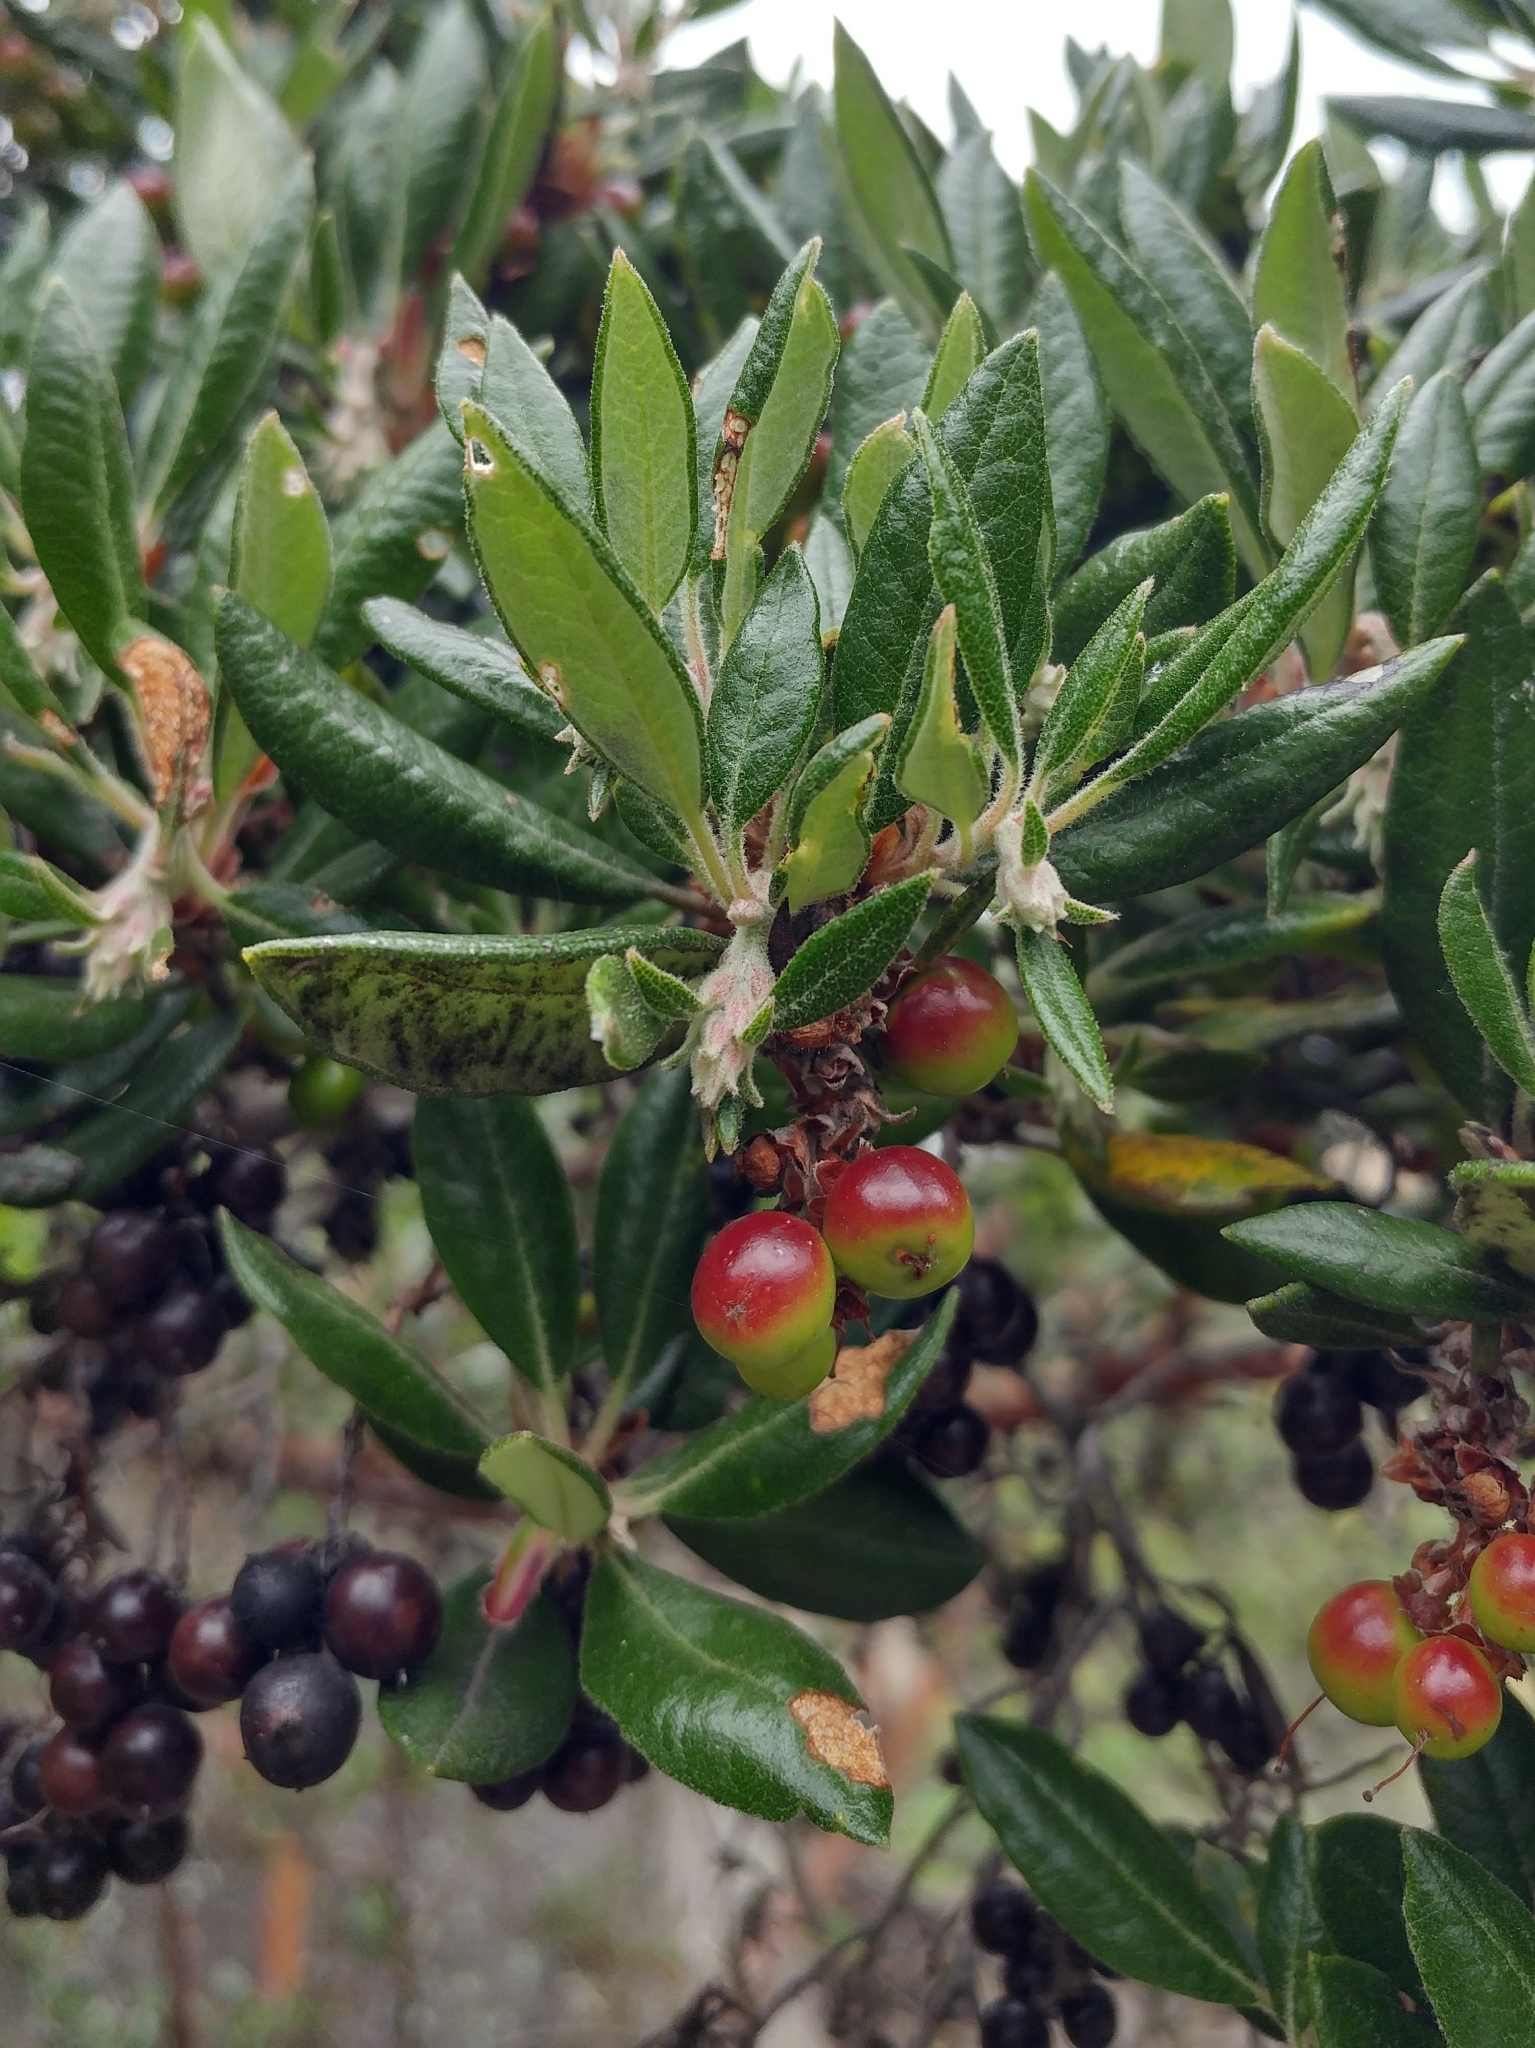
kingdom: Plantae
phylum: Tracheophyta
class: Magnoliopsida
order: Ericales
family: Ericaceae
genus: Arctostaphylos
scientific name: Arctostaphylos bicolor
